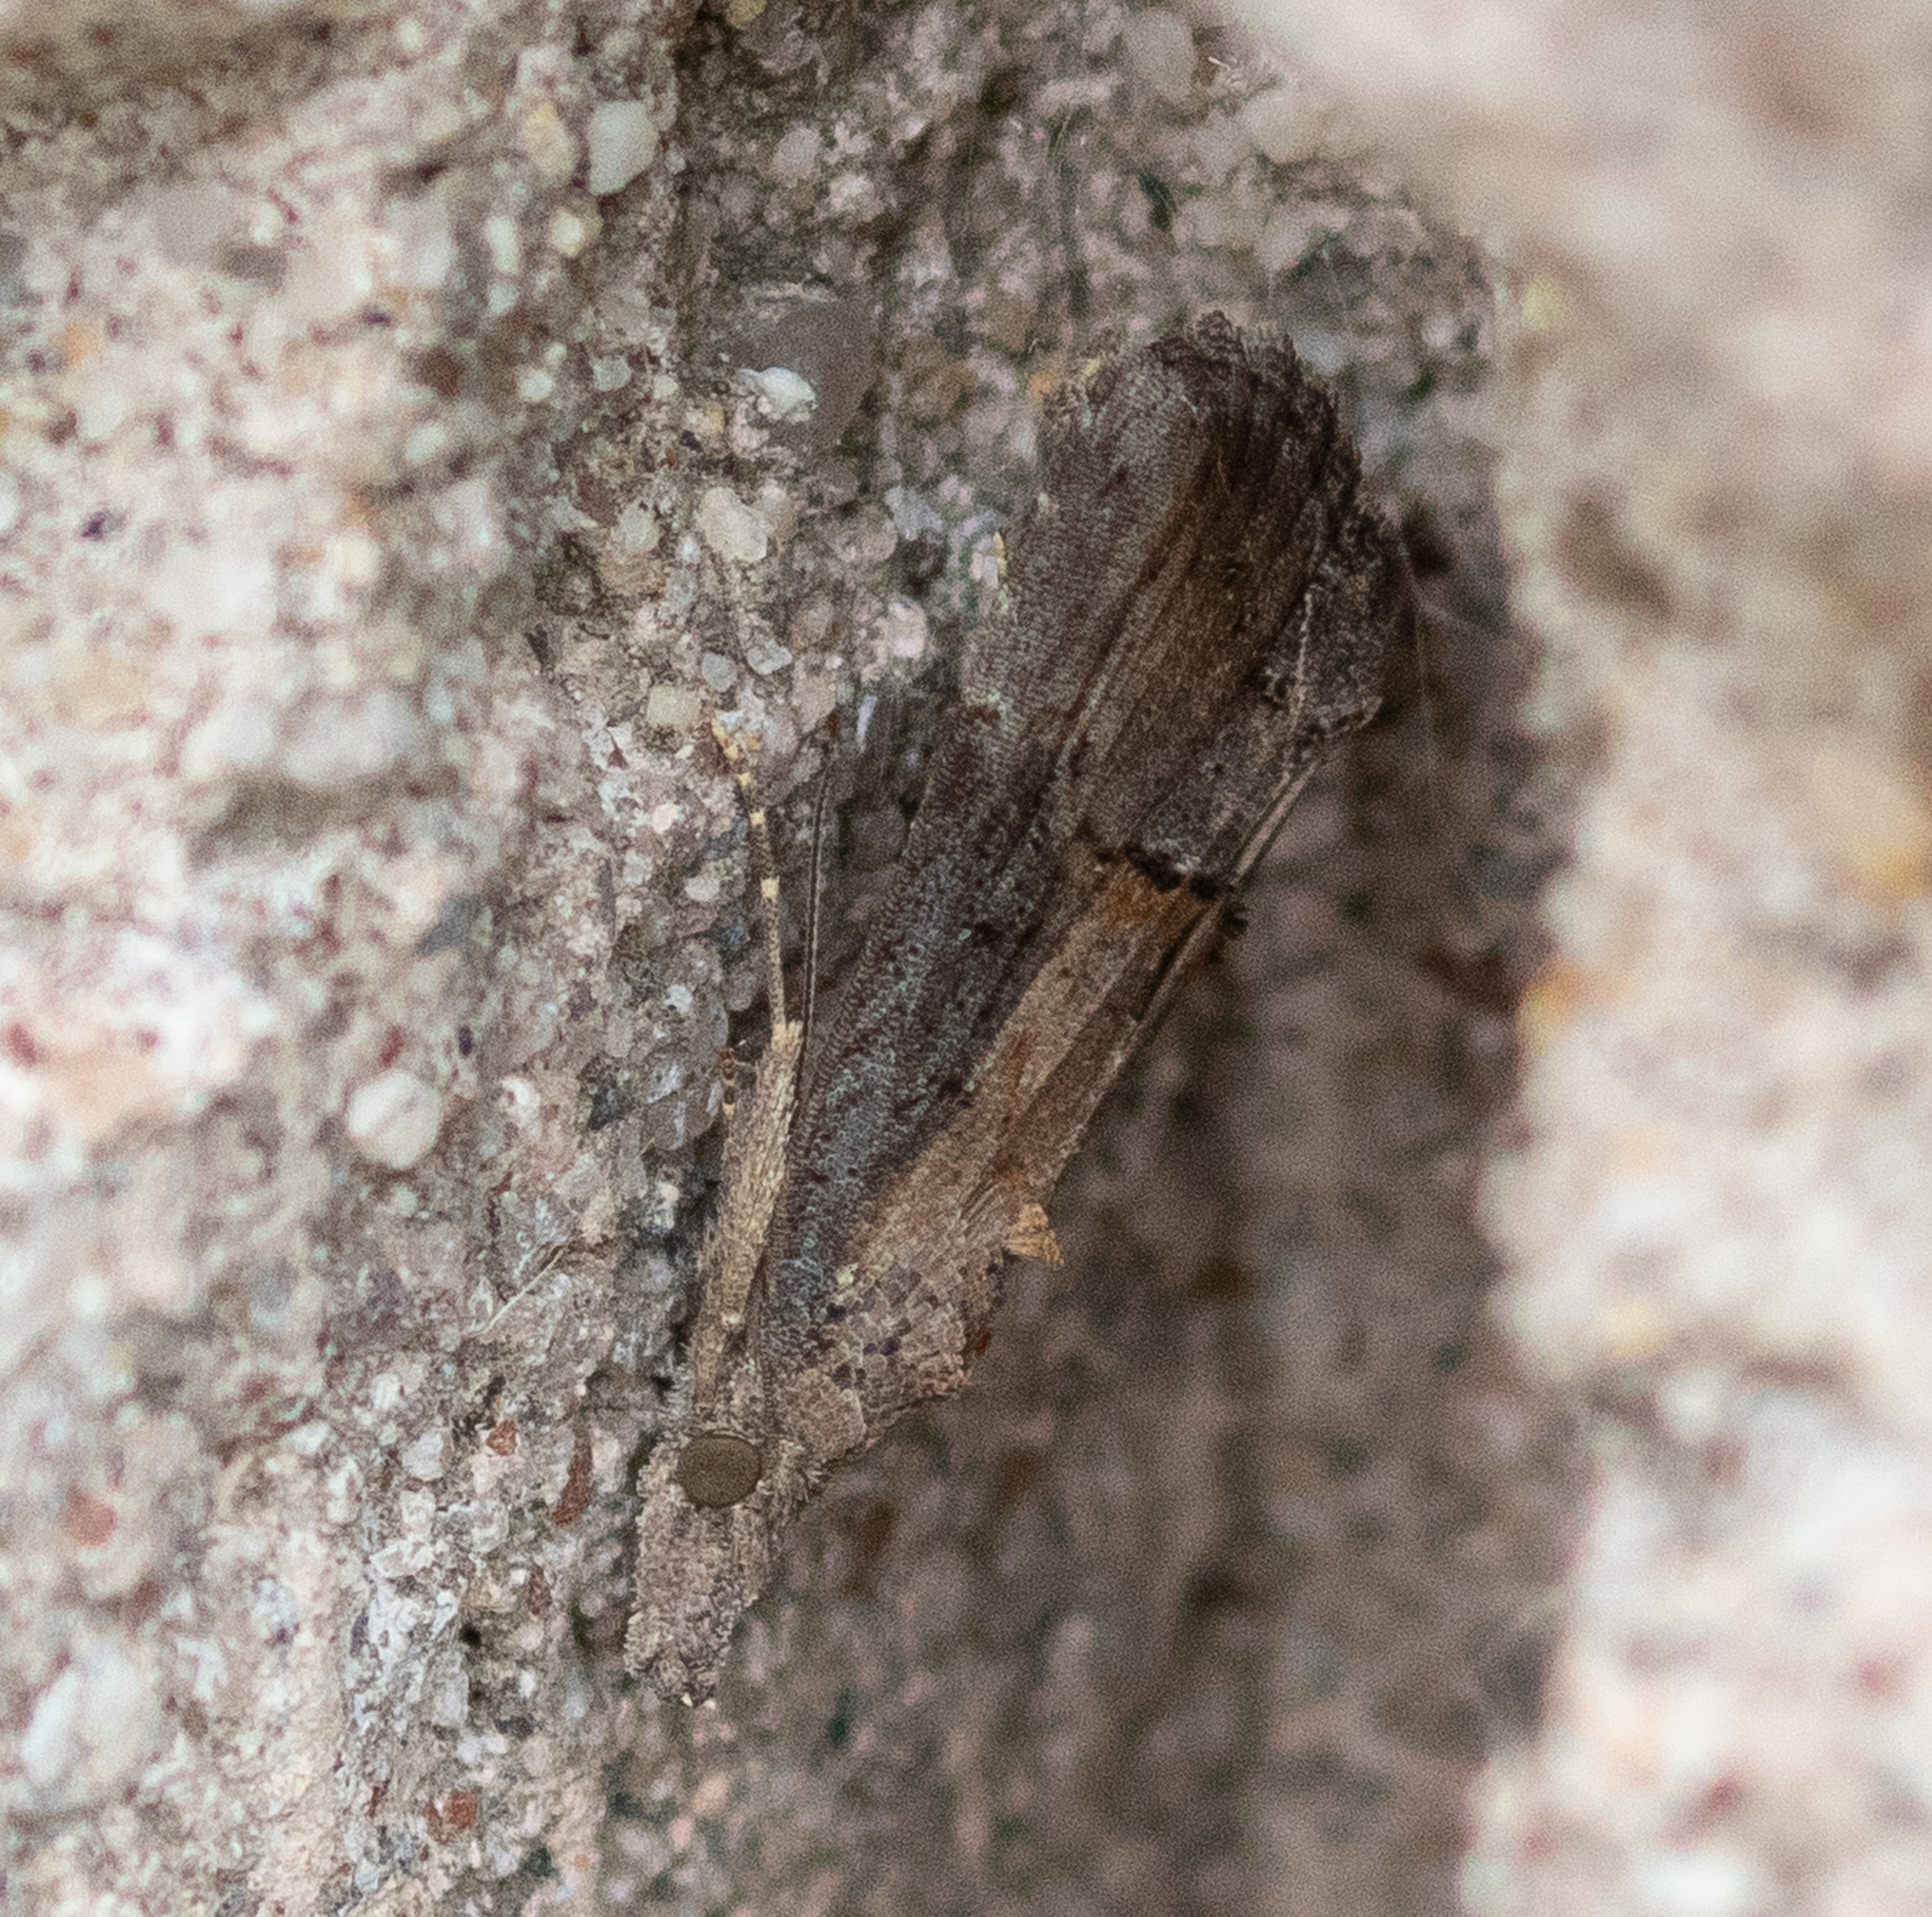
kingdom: Animalia
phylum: Arthropoda
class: Insecta
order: Lepidoptera
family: Erebidae
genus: Hypena
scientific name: Hypena scabra
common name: Green cloverworm
